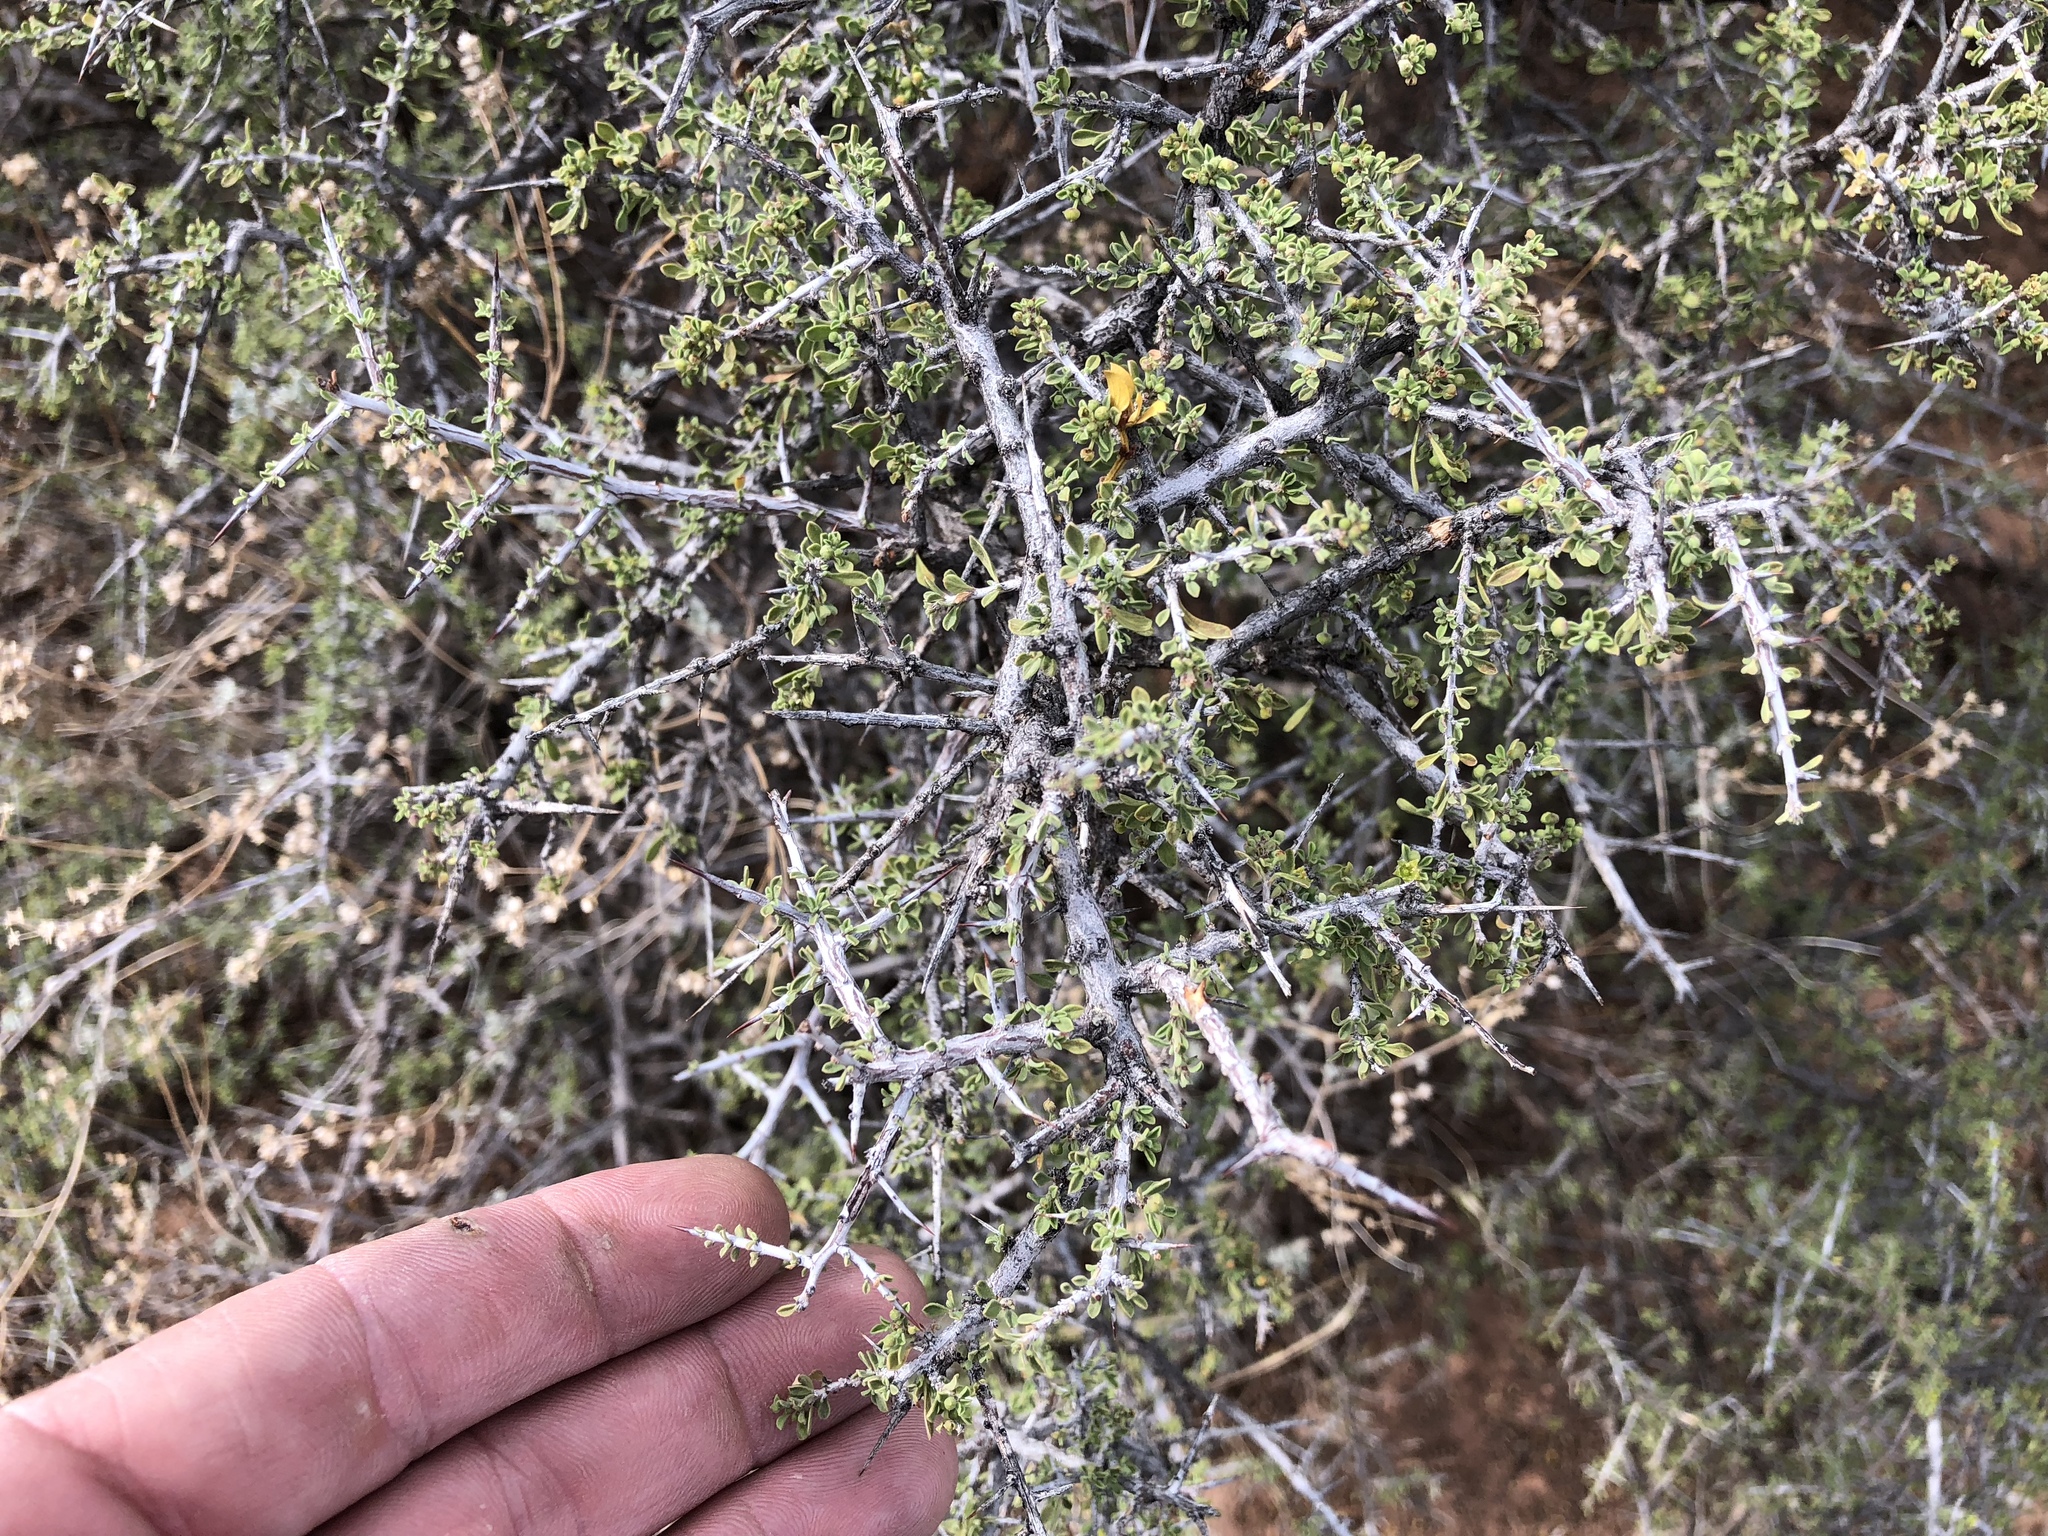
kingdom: Plantae
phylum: Tracheophyta
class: Magnoliopsida
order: Rosales
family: Rhamnaceae
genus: Condalia
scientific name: Condalia warnockii
